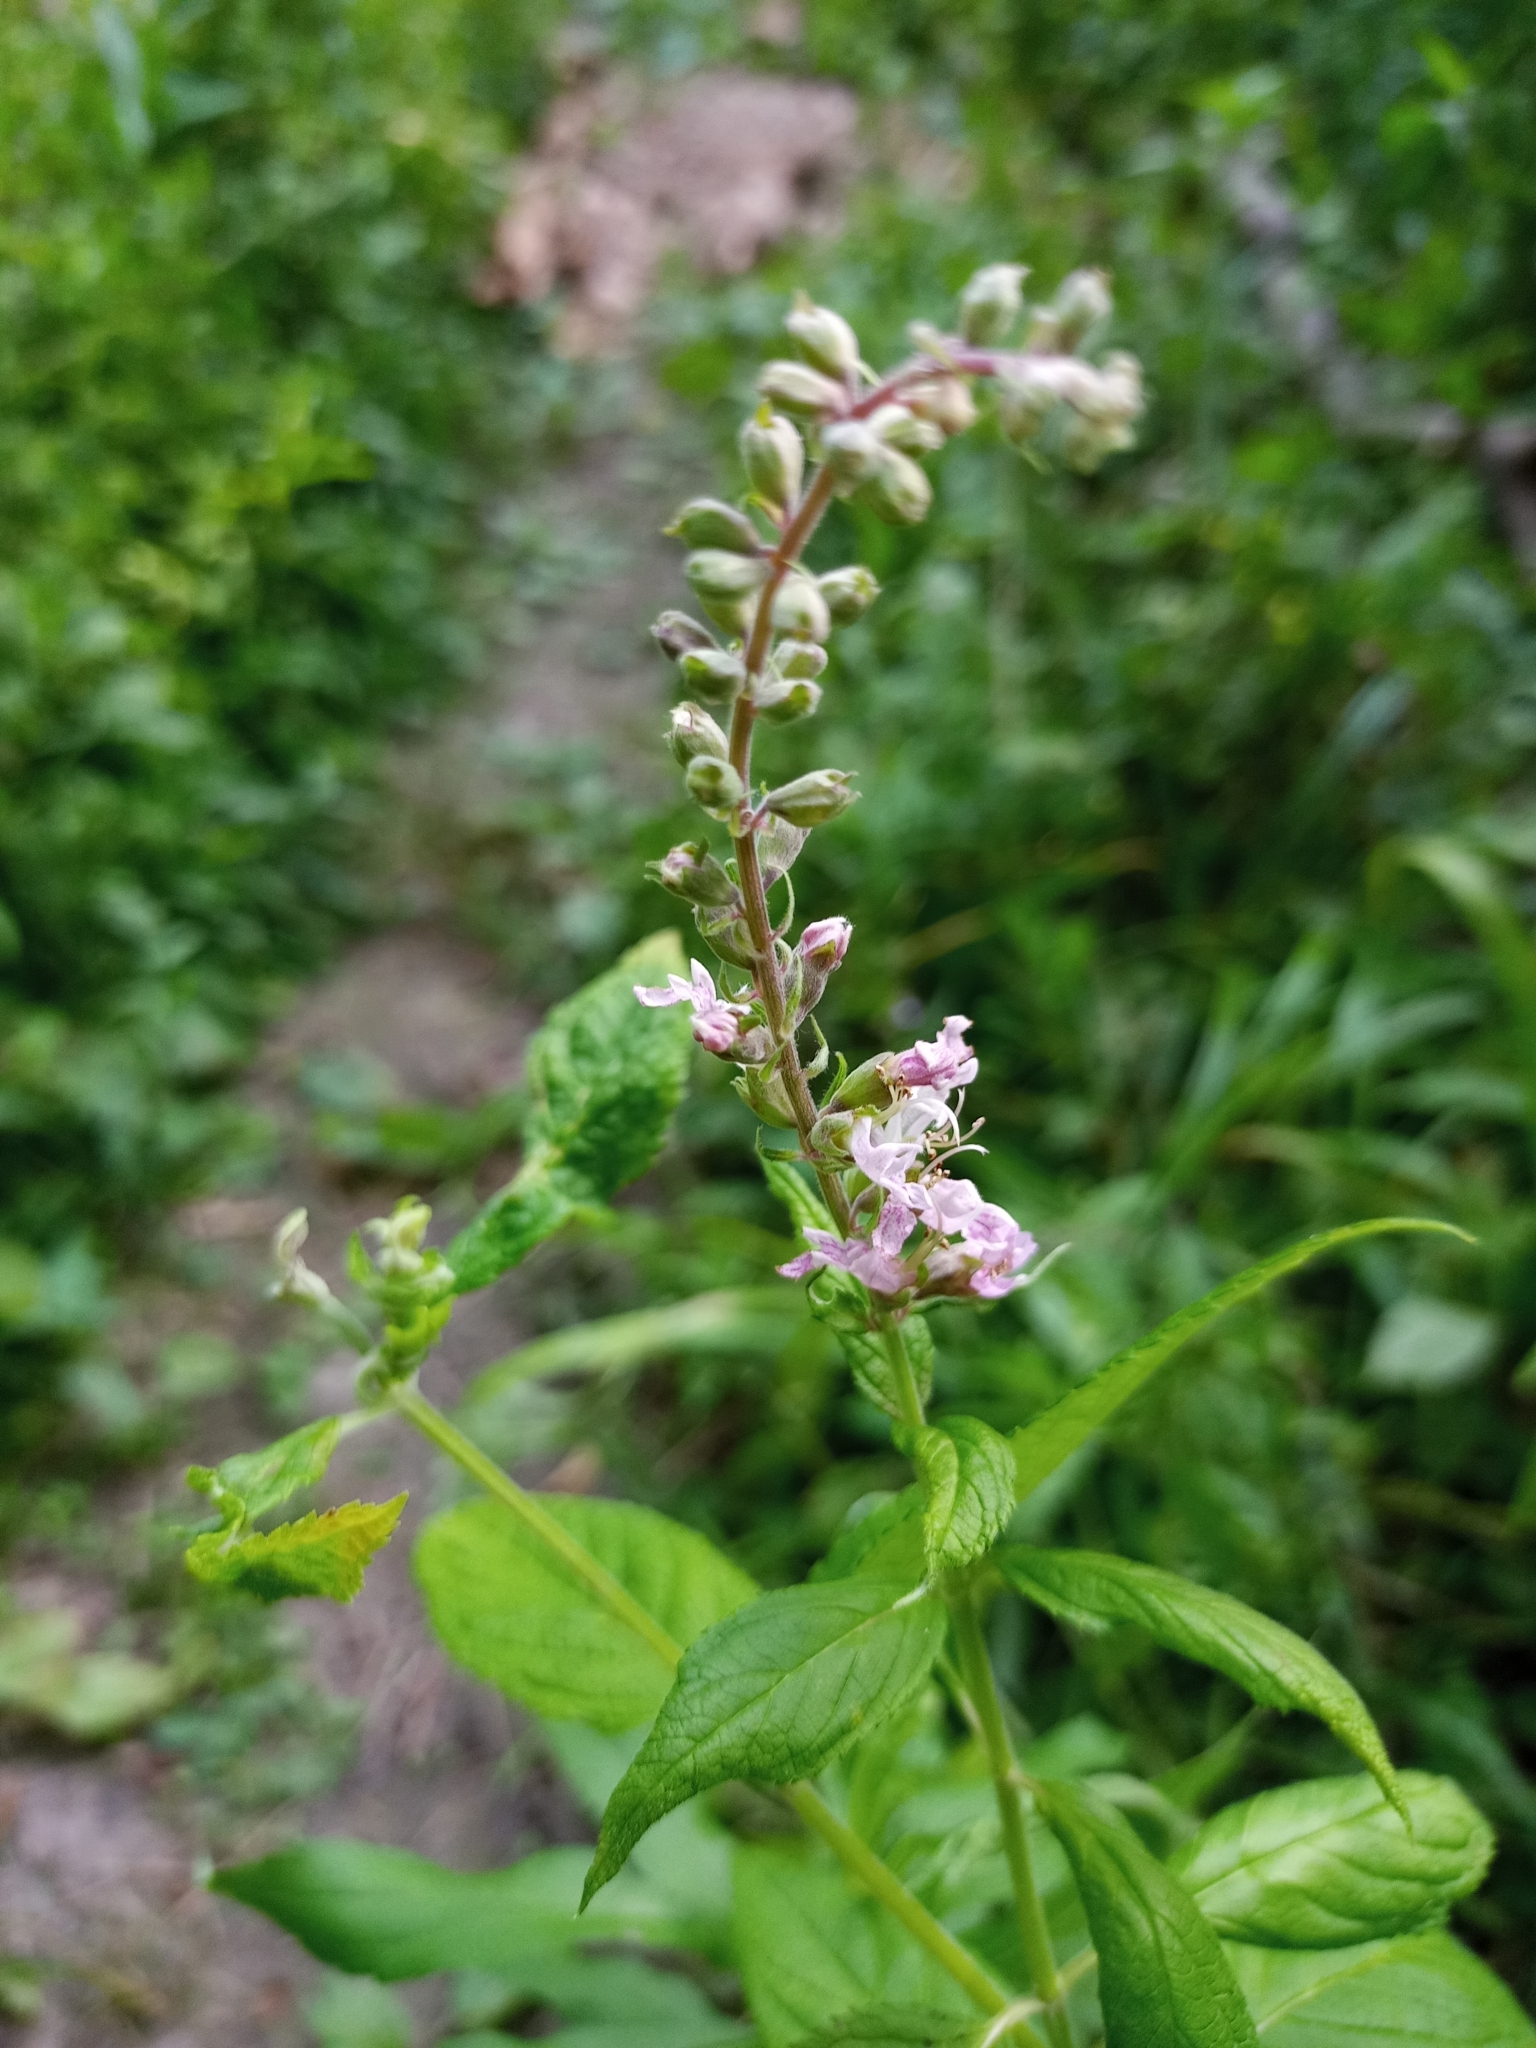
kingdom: Plantae
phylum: Tracheophyta
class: Magnoliopsida
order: Lamiales
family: Lamiaceae
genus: Teucrium
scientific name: Teucrium canadense
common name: American germander
